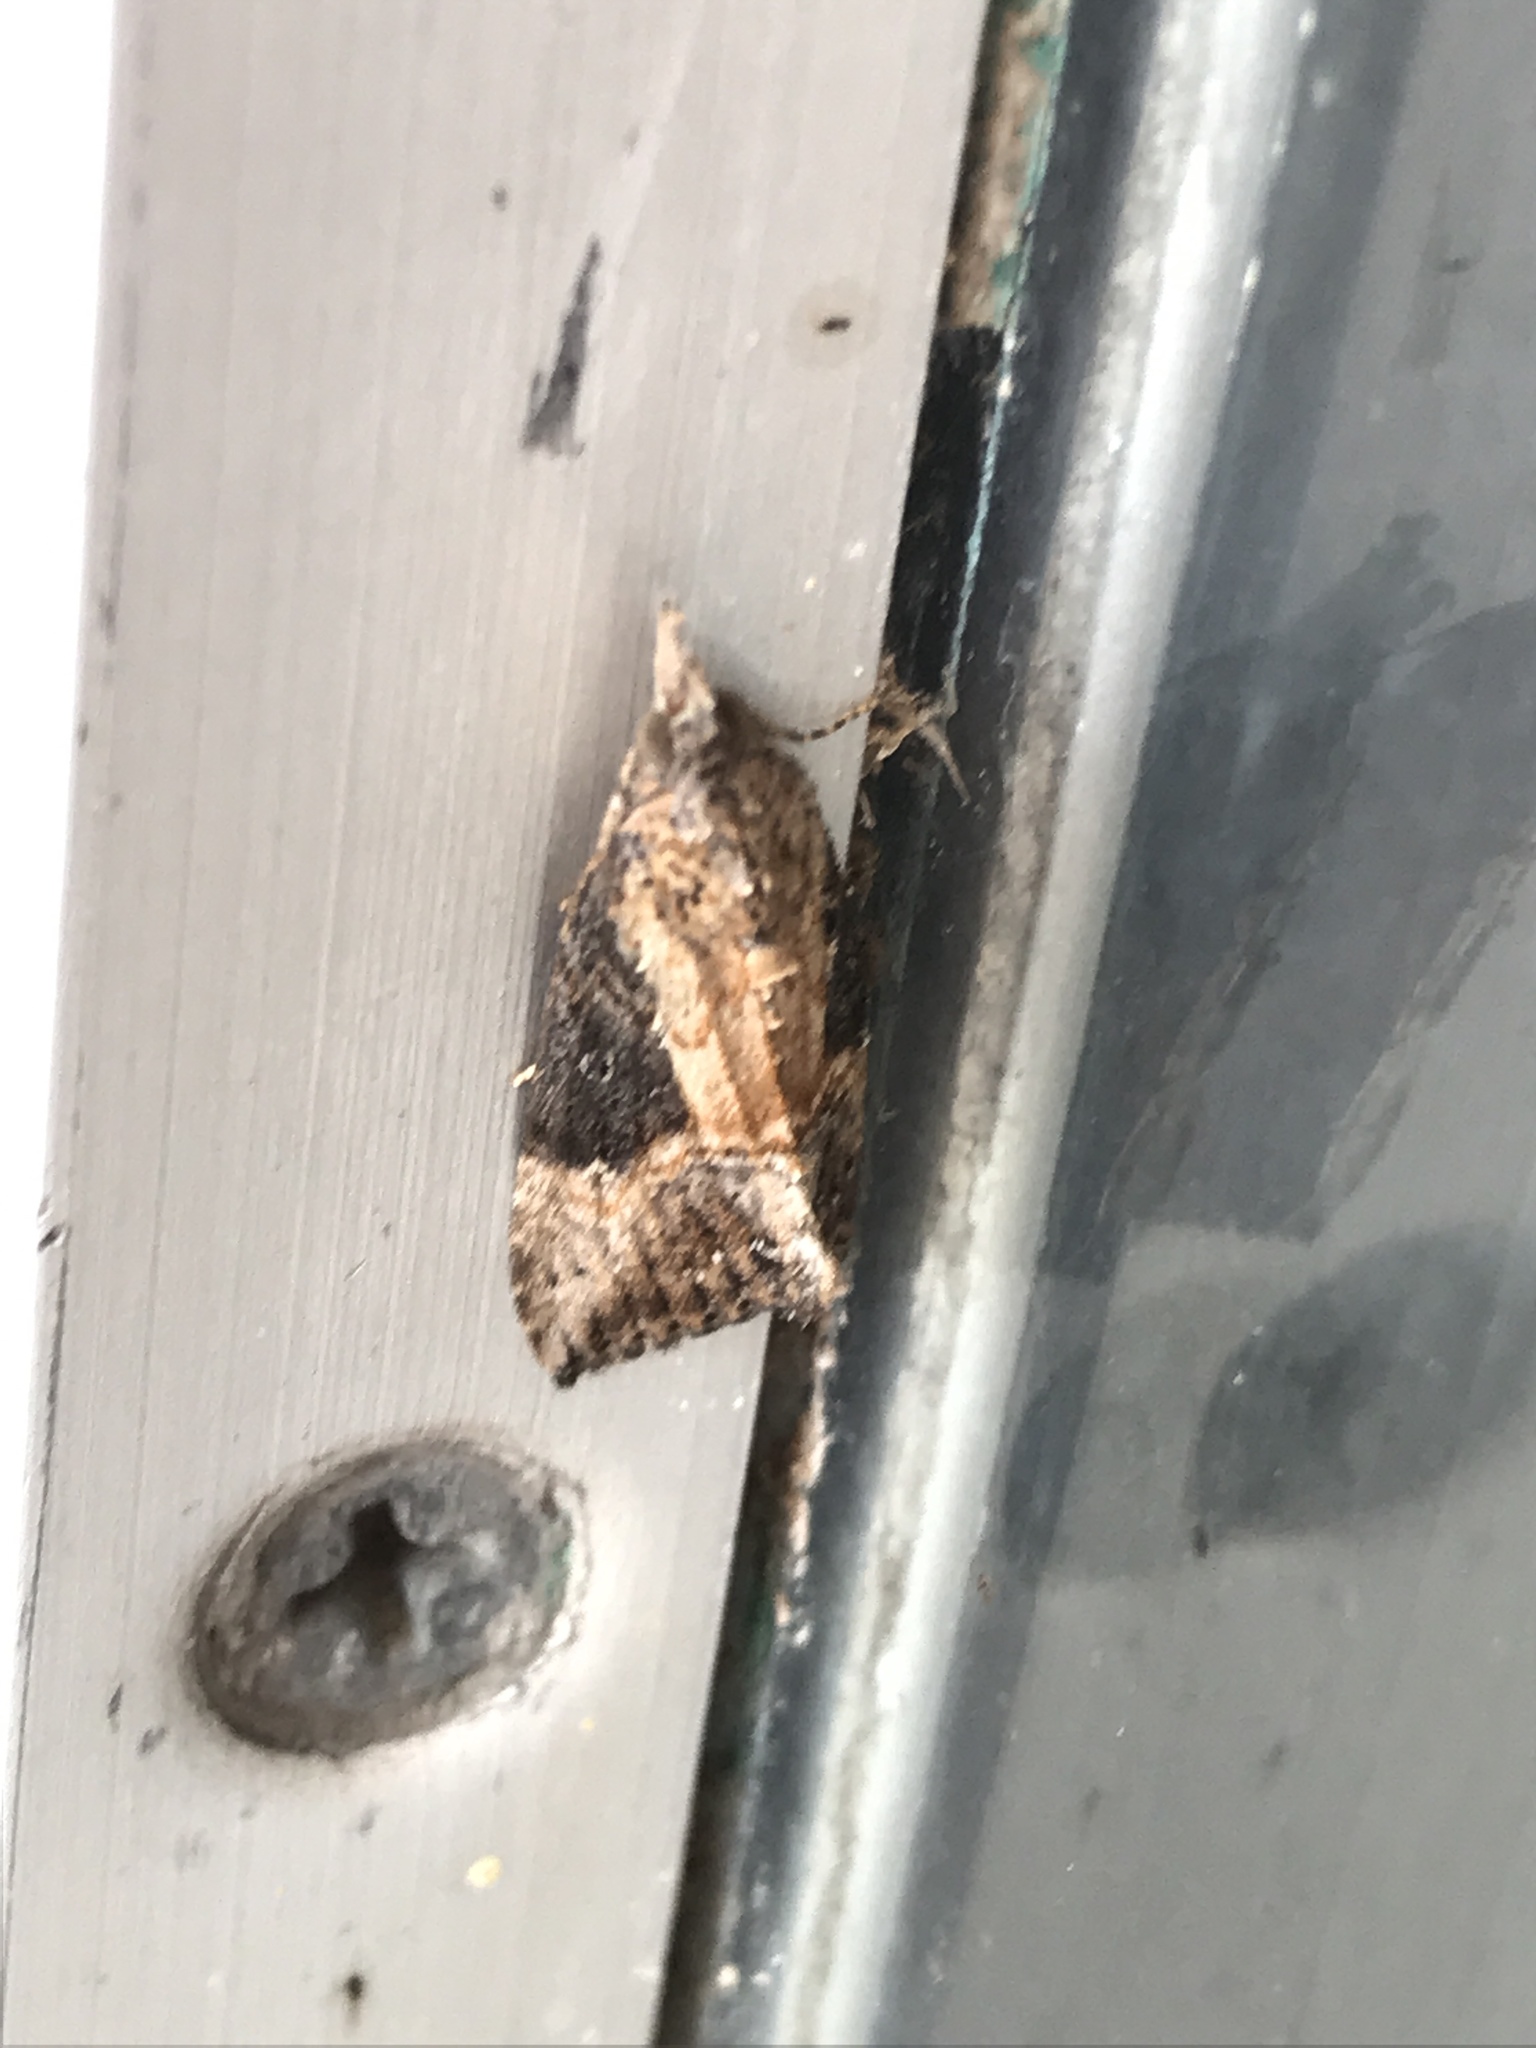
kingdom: Animalia
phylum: Arthropoda
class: Insecta
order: Lepidoptera
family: Erebidae
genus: Hypena
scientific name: Hypena scabra
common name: Green cloverworm
